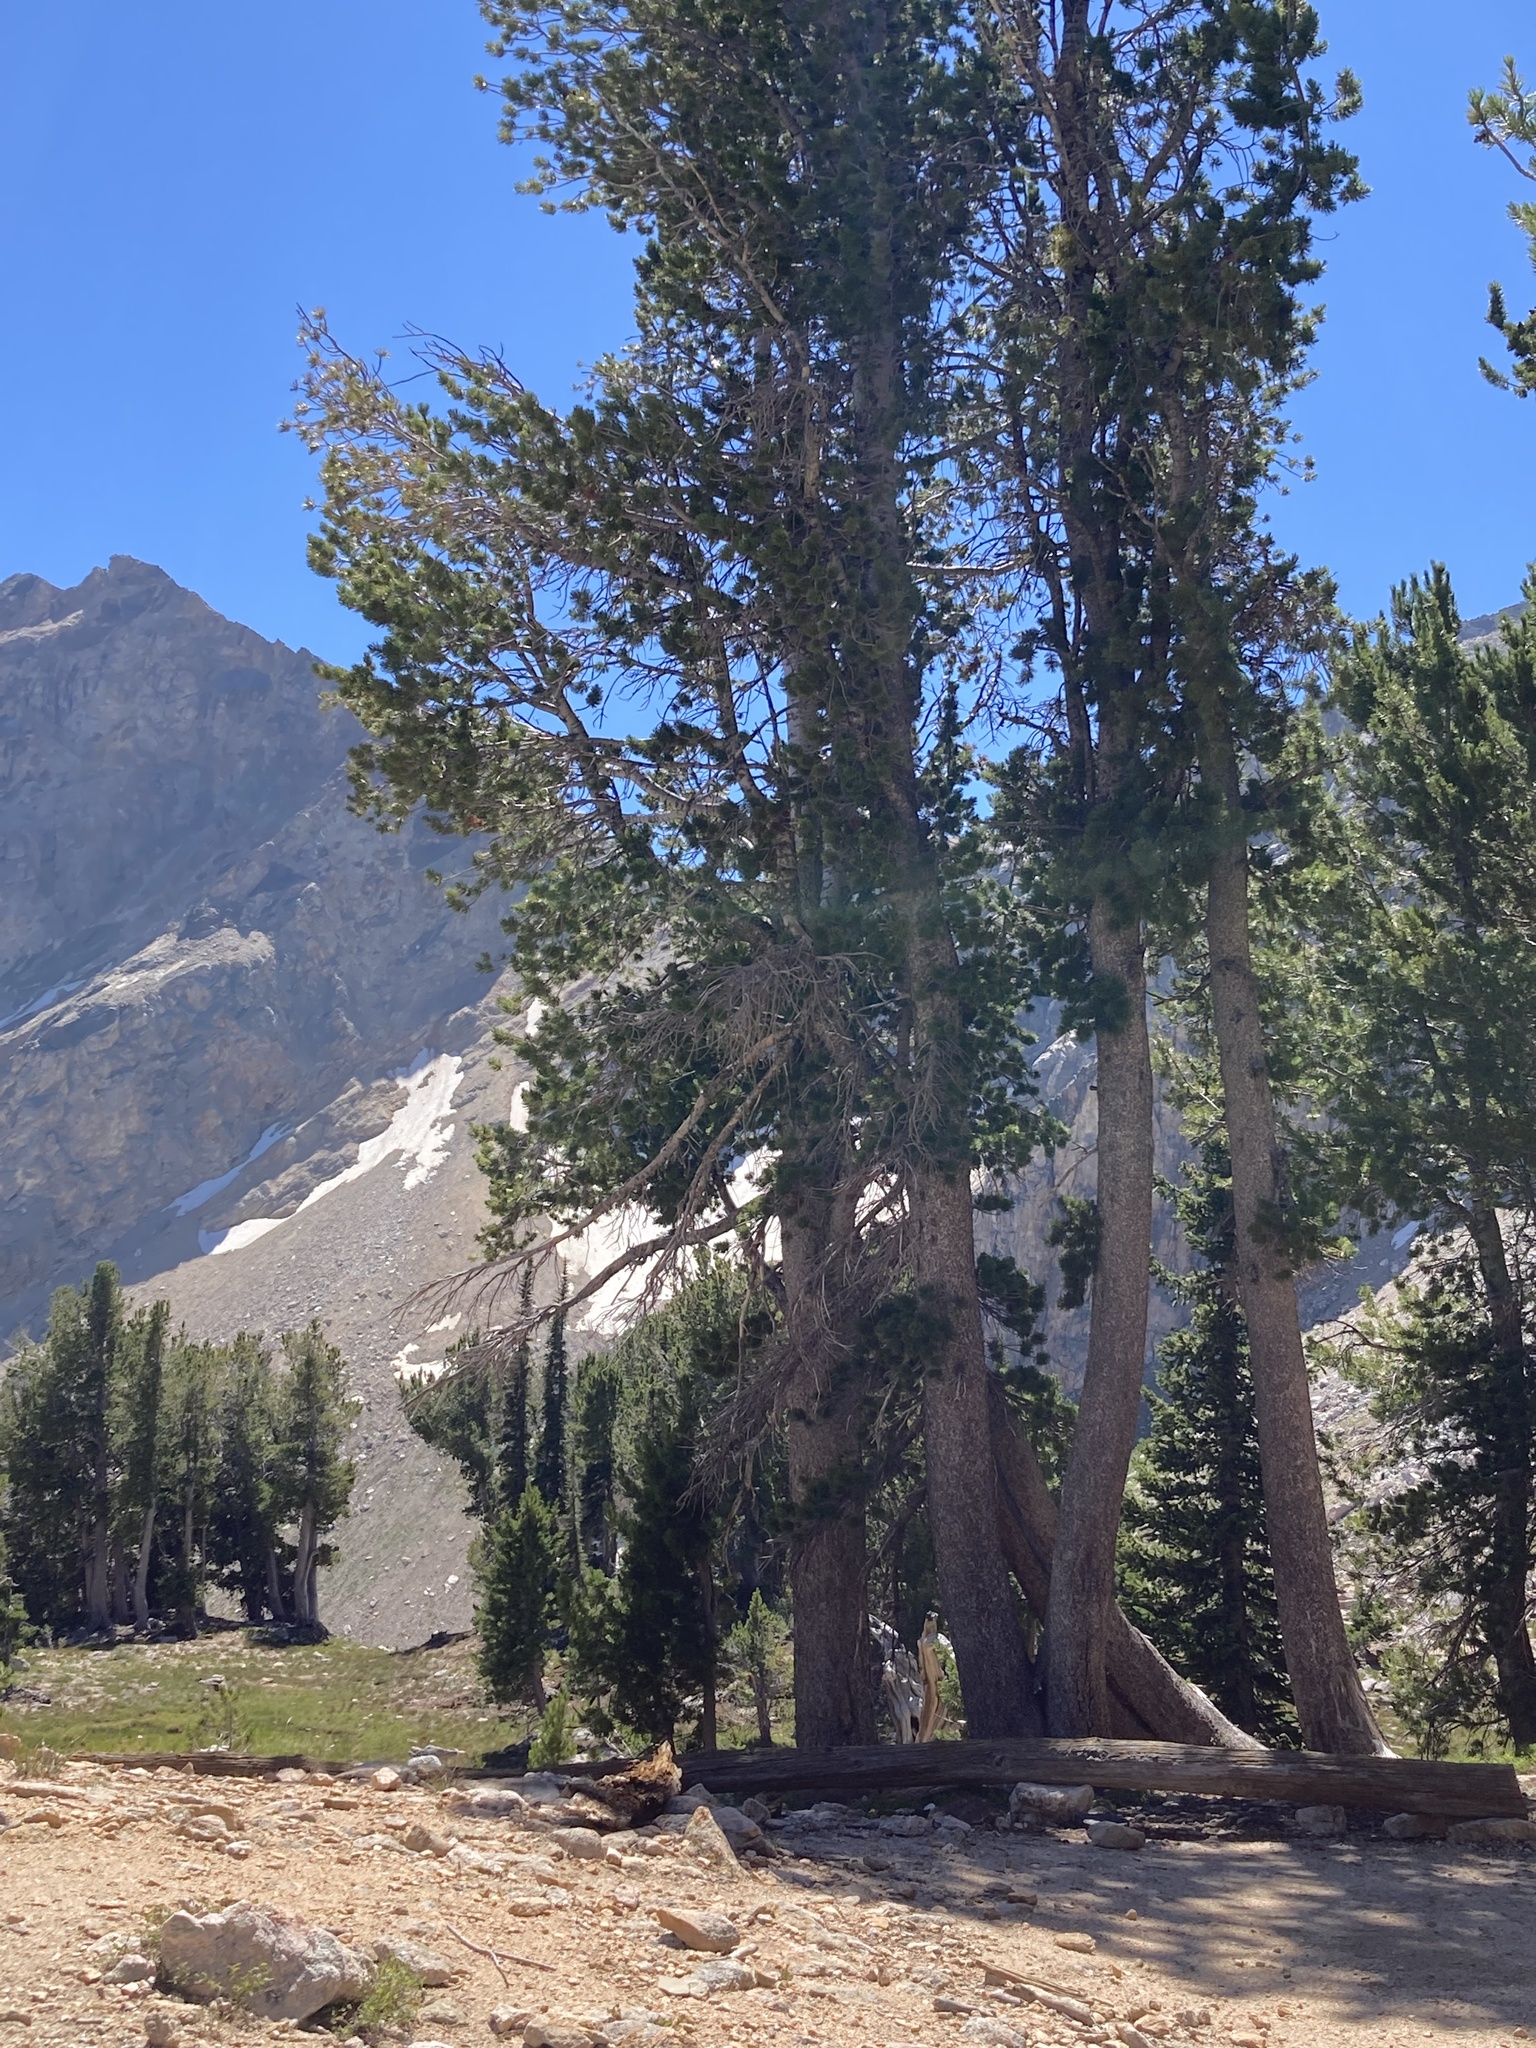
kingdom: Plantae
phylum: Tracheophyta
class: Pinopsida
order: Pinales
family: Pinaceae
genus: Pinus
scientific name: Pinus albicaulis
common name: Whitebark pine
